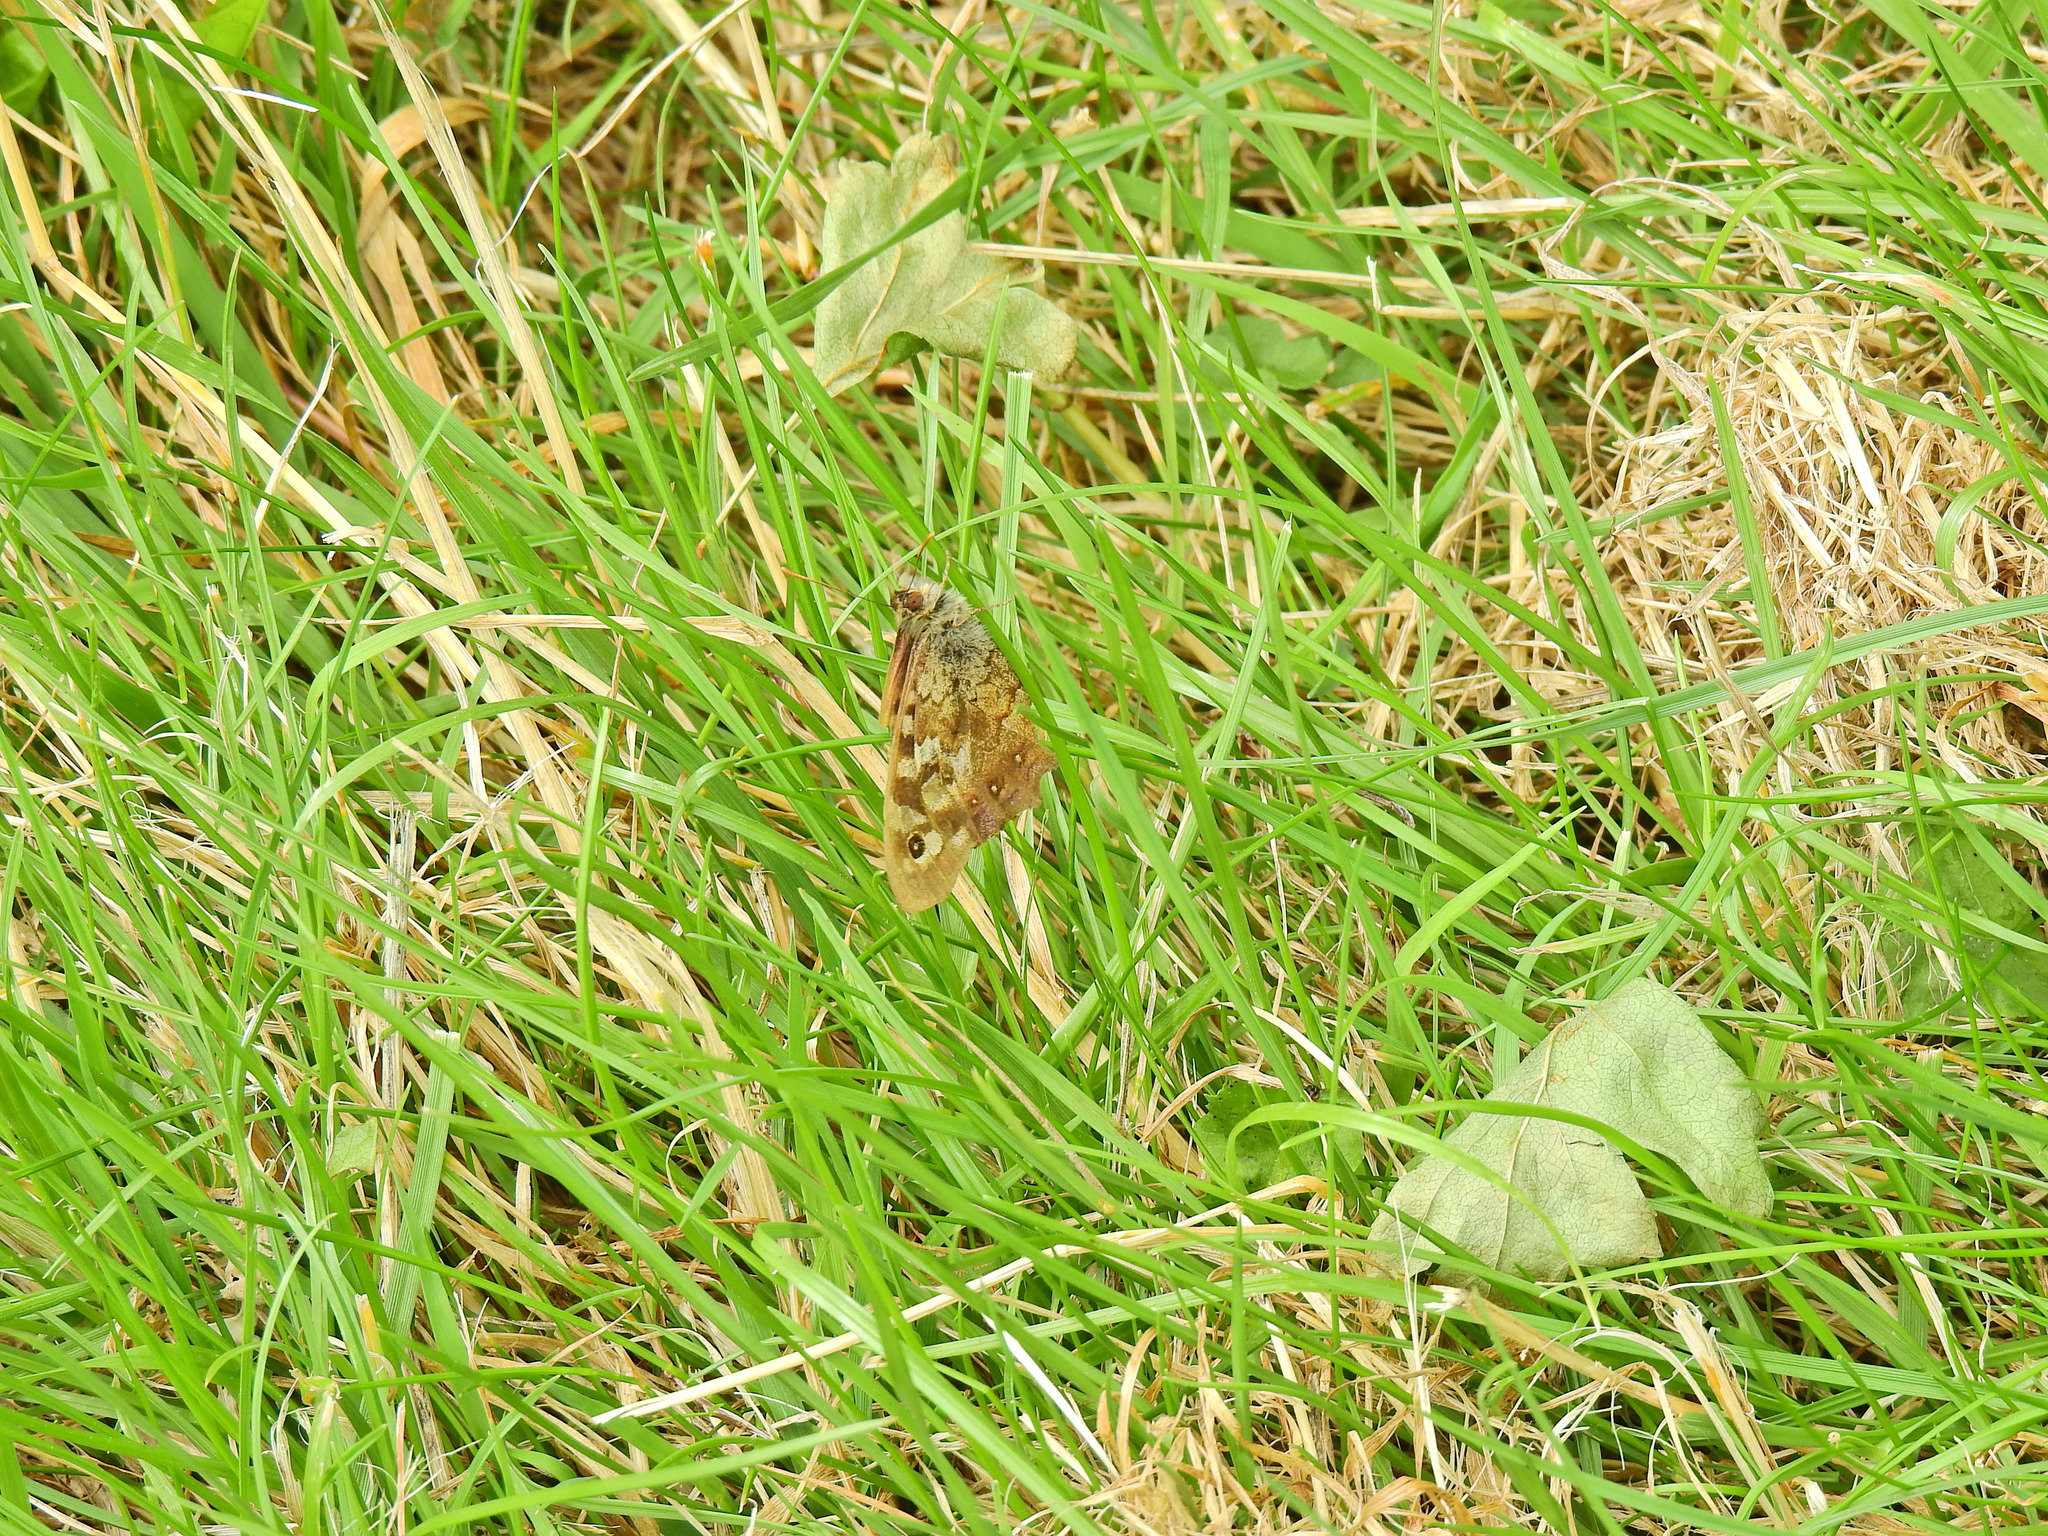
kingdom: Animalia
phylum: Arthropoda
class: Insecta
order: Lepidoptera
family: Nymphalidae
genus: Pararge
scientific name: Pararge aegeria
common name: Speckled wood
